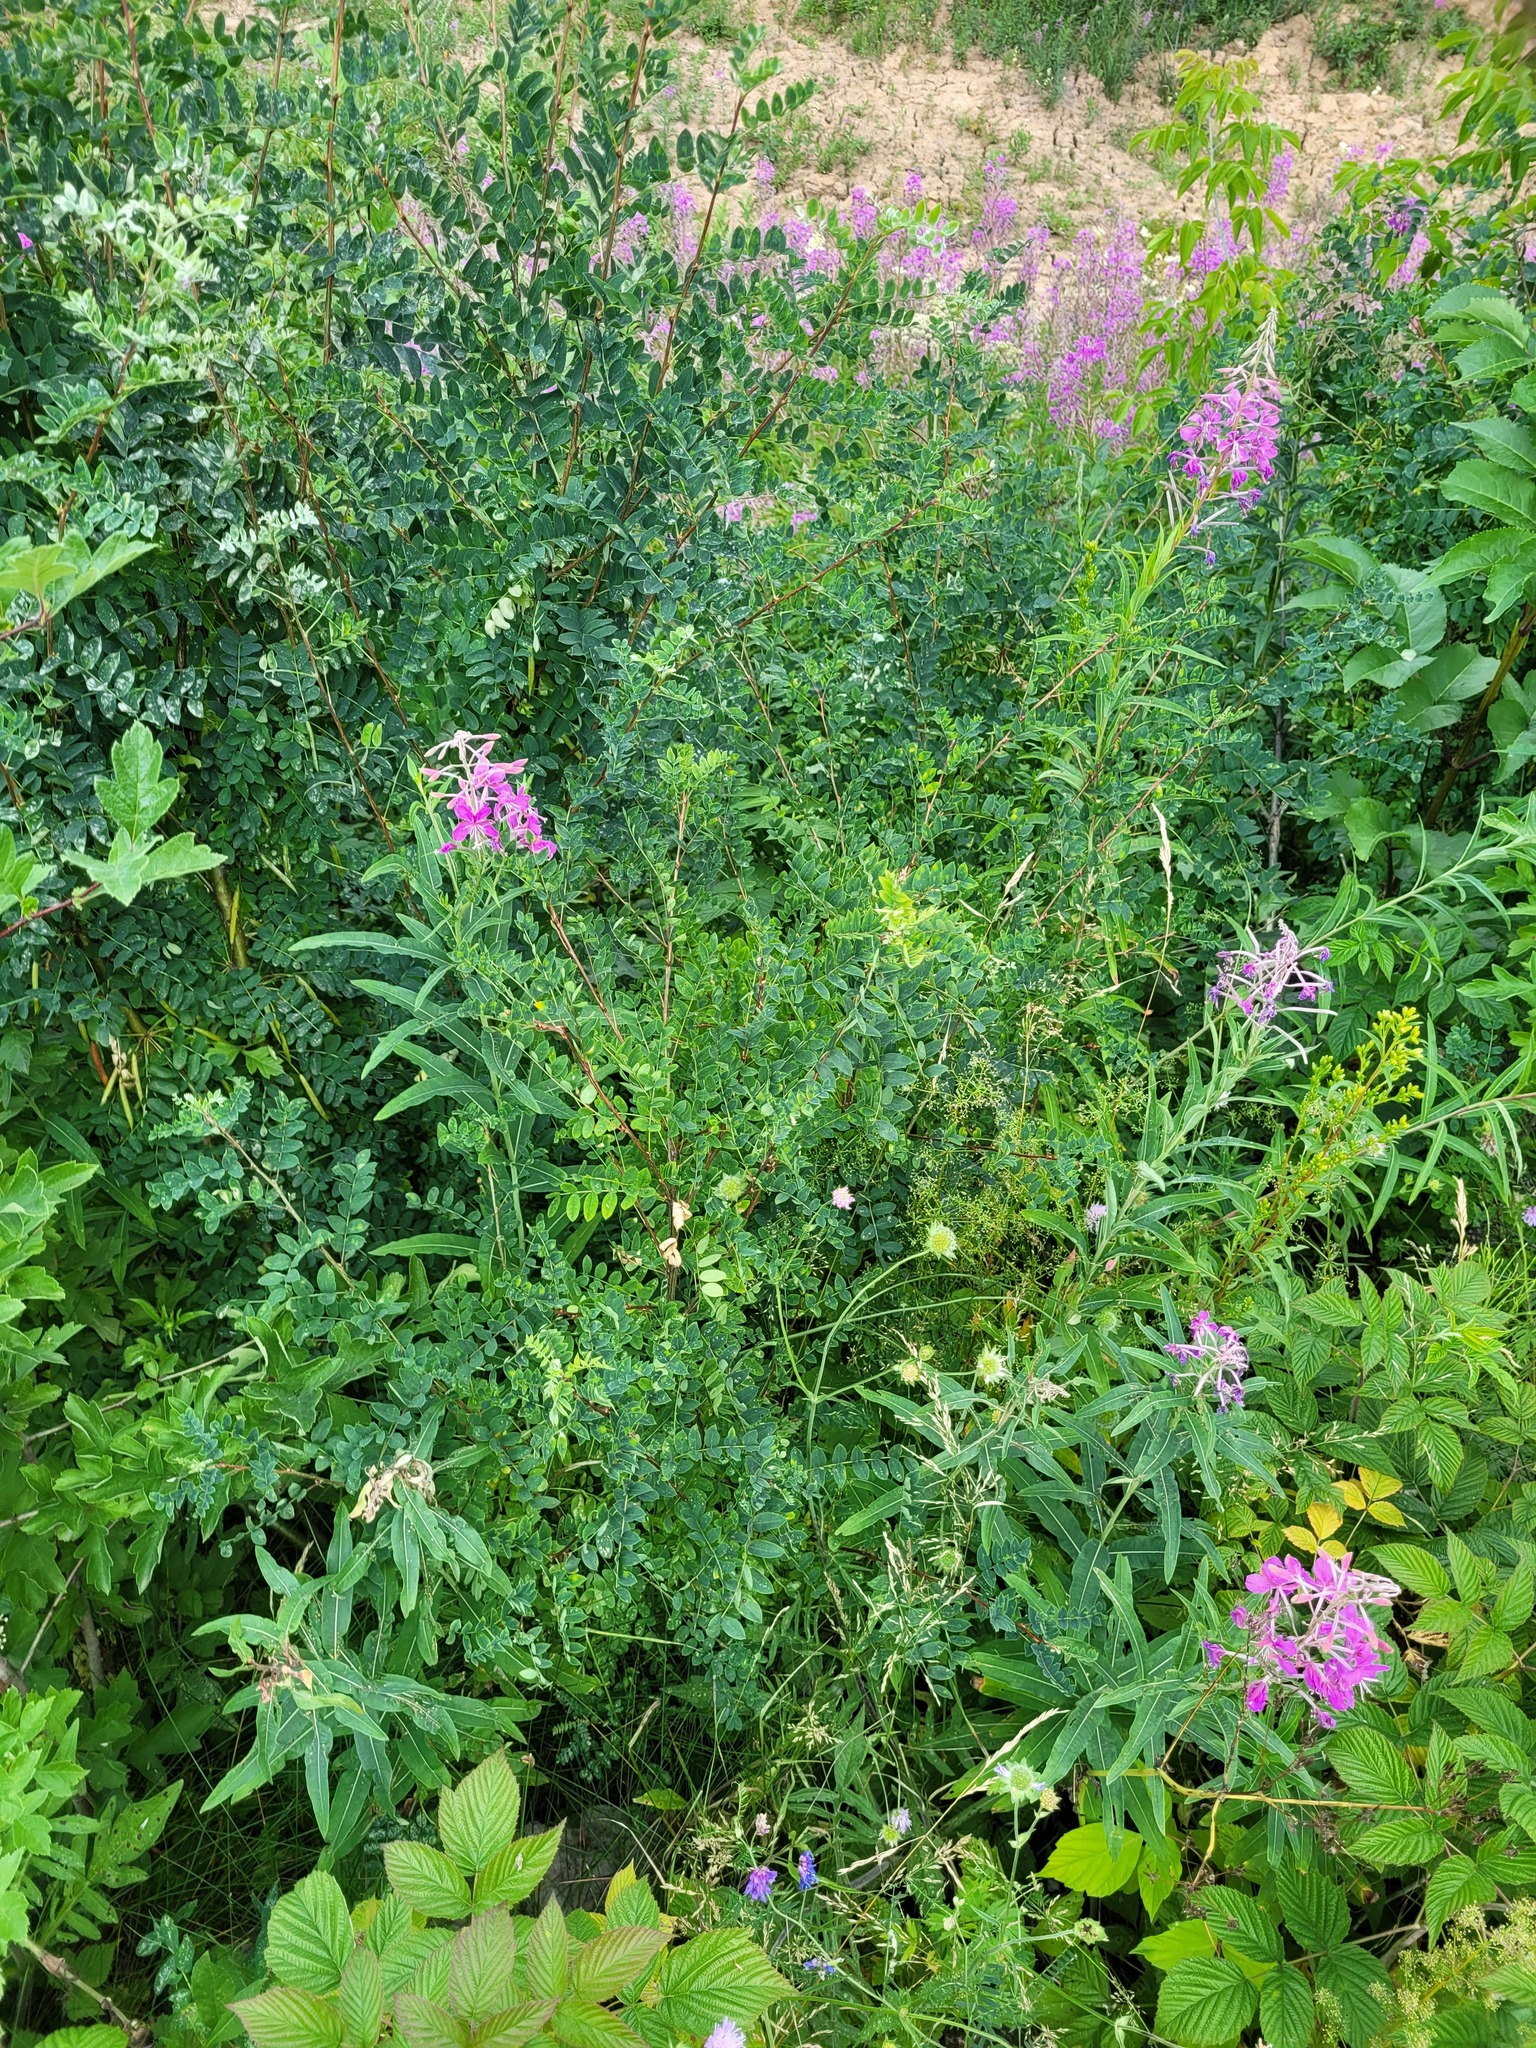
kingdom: Plantae
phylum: Tracheophyta
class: Magnoliopsida
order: Fabales
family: Fabaceae
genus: Caragana
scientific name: Caragana arborescens
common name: Siberian peashrub
